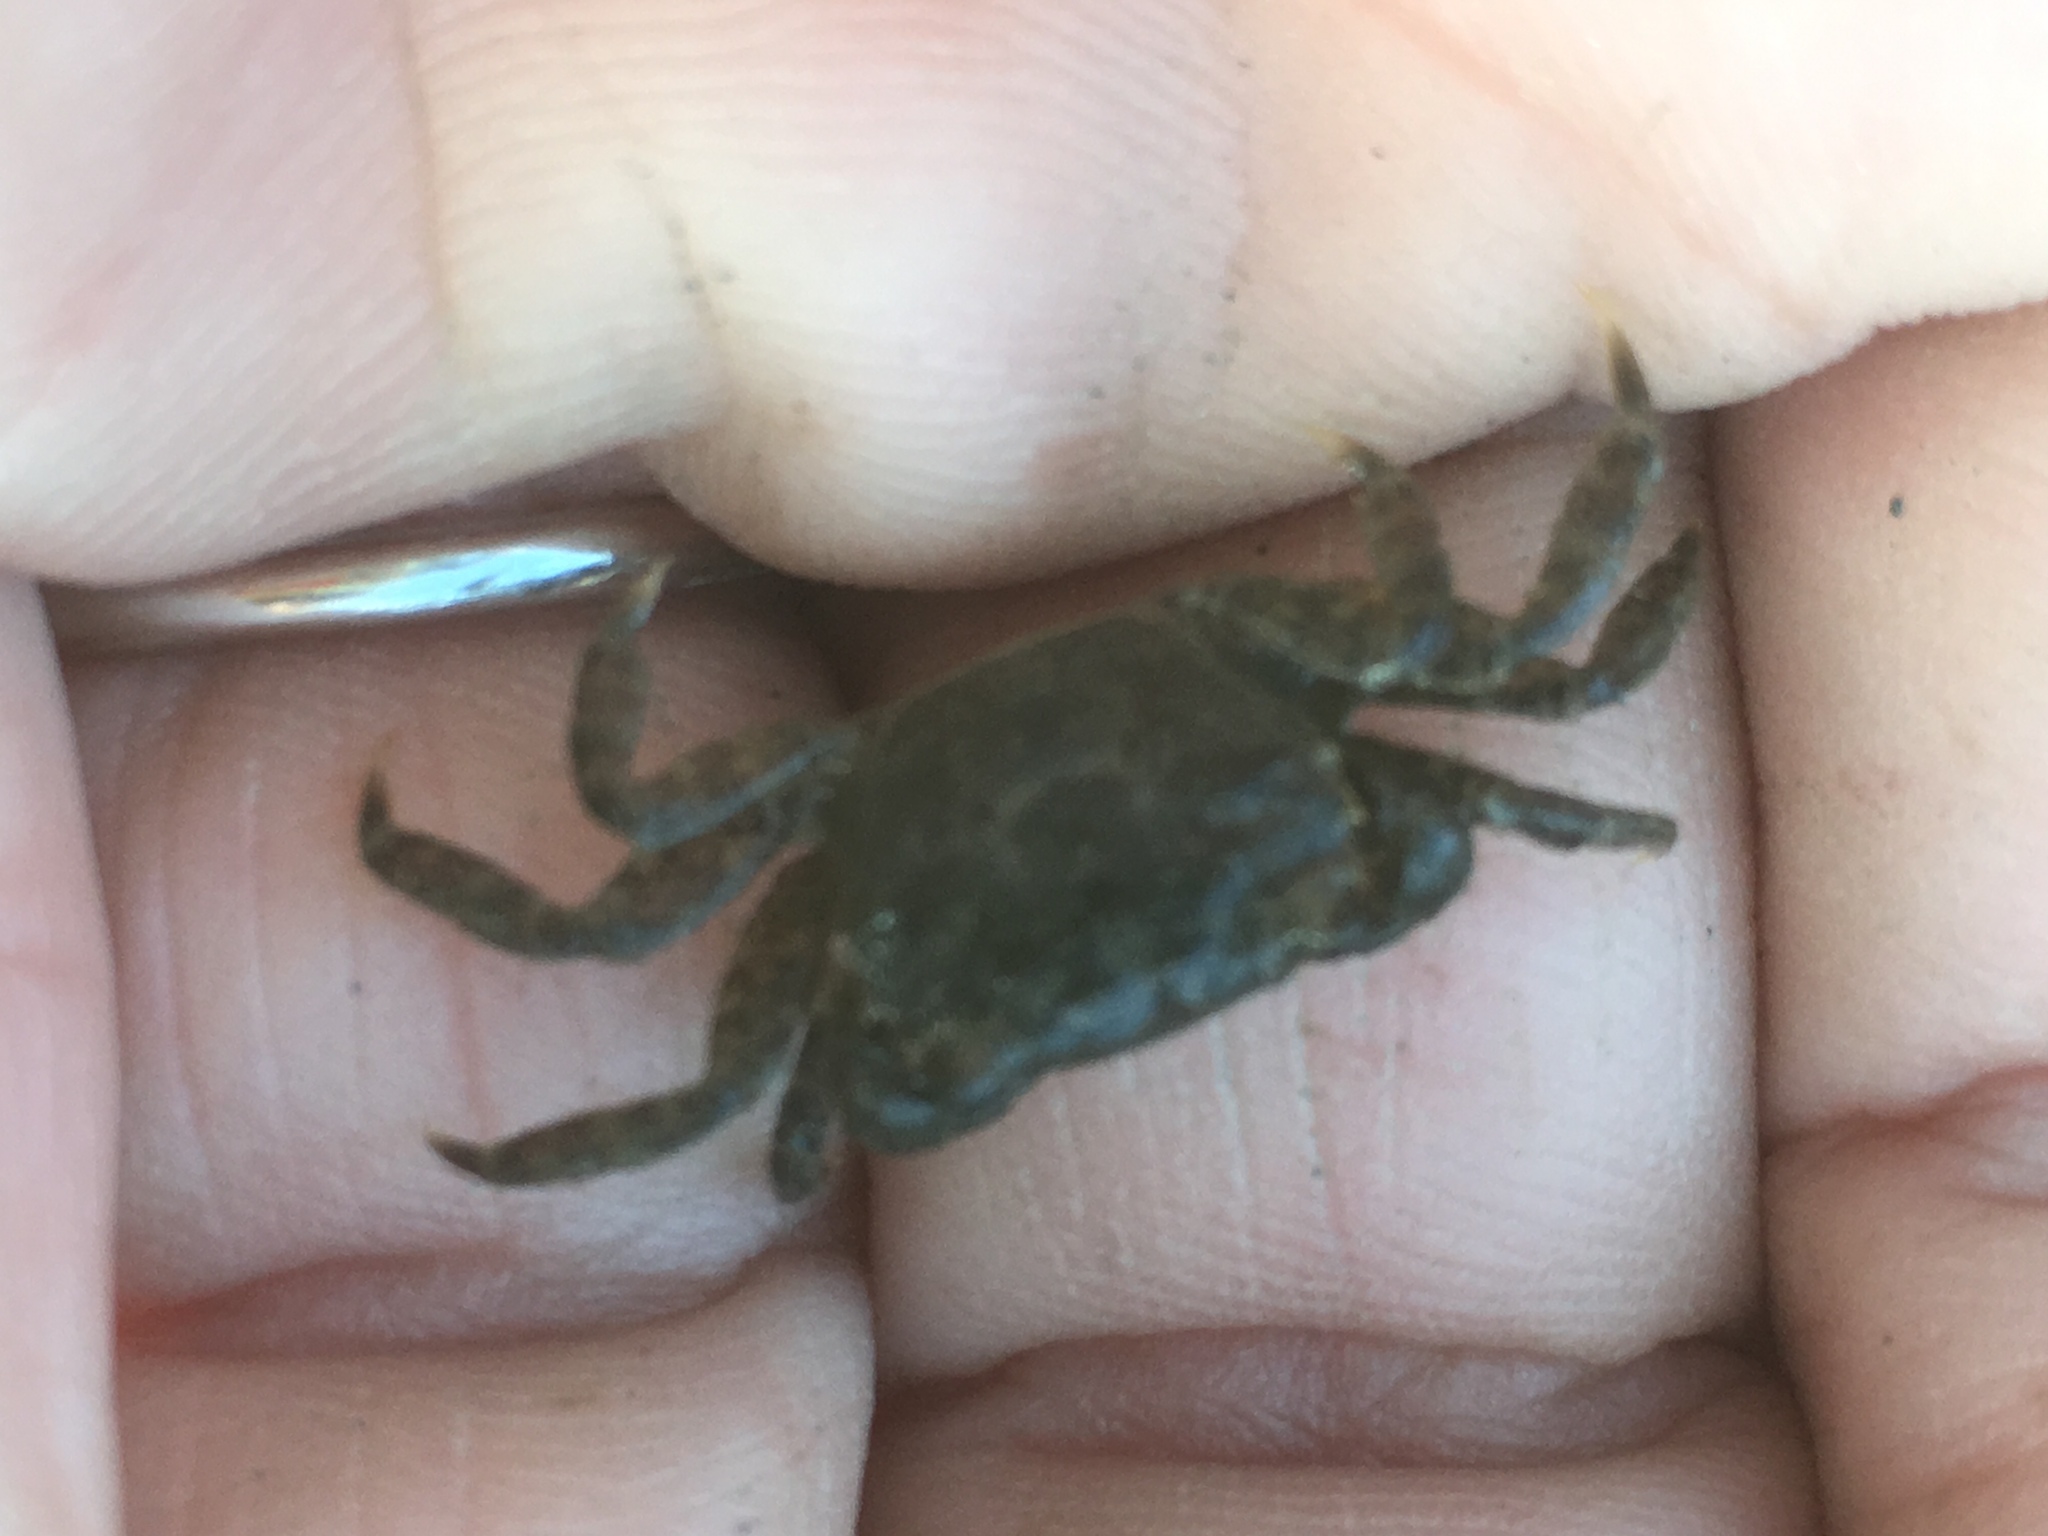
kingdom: Animalia
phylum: Arthropoda
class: Malacostraca
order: Decapoda
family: Varunidae
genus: Hemigrapsus
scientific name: Hemigrapsus oregonensis
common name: Yellow shore crab
